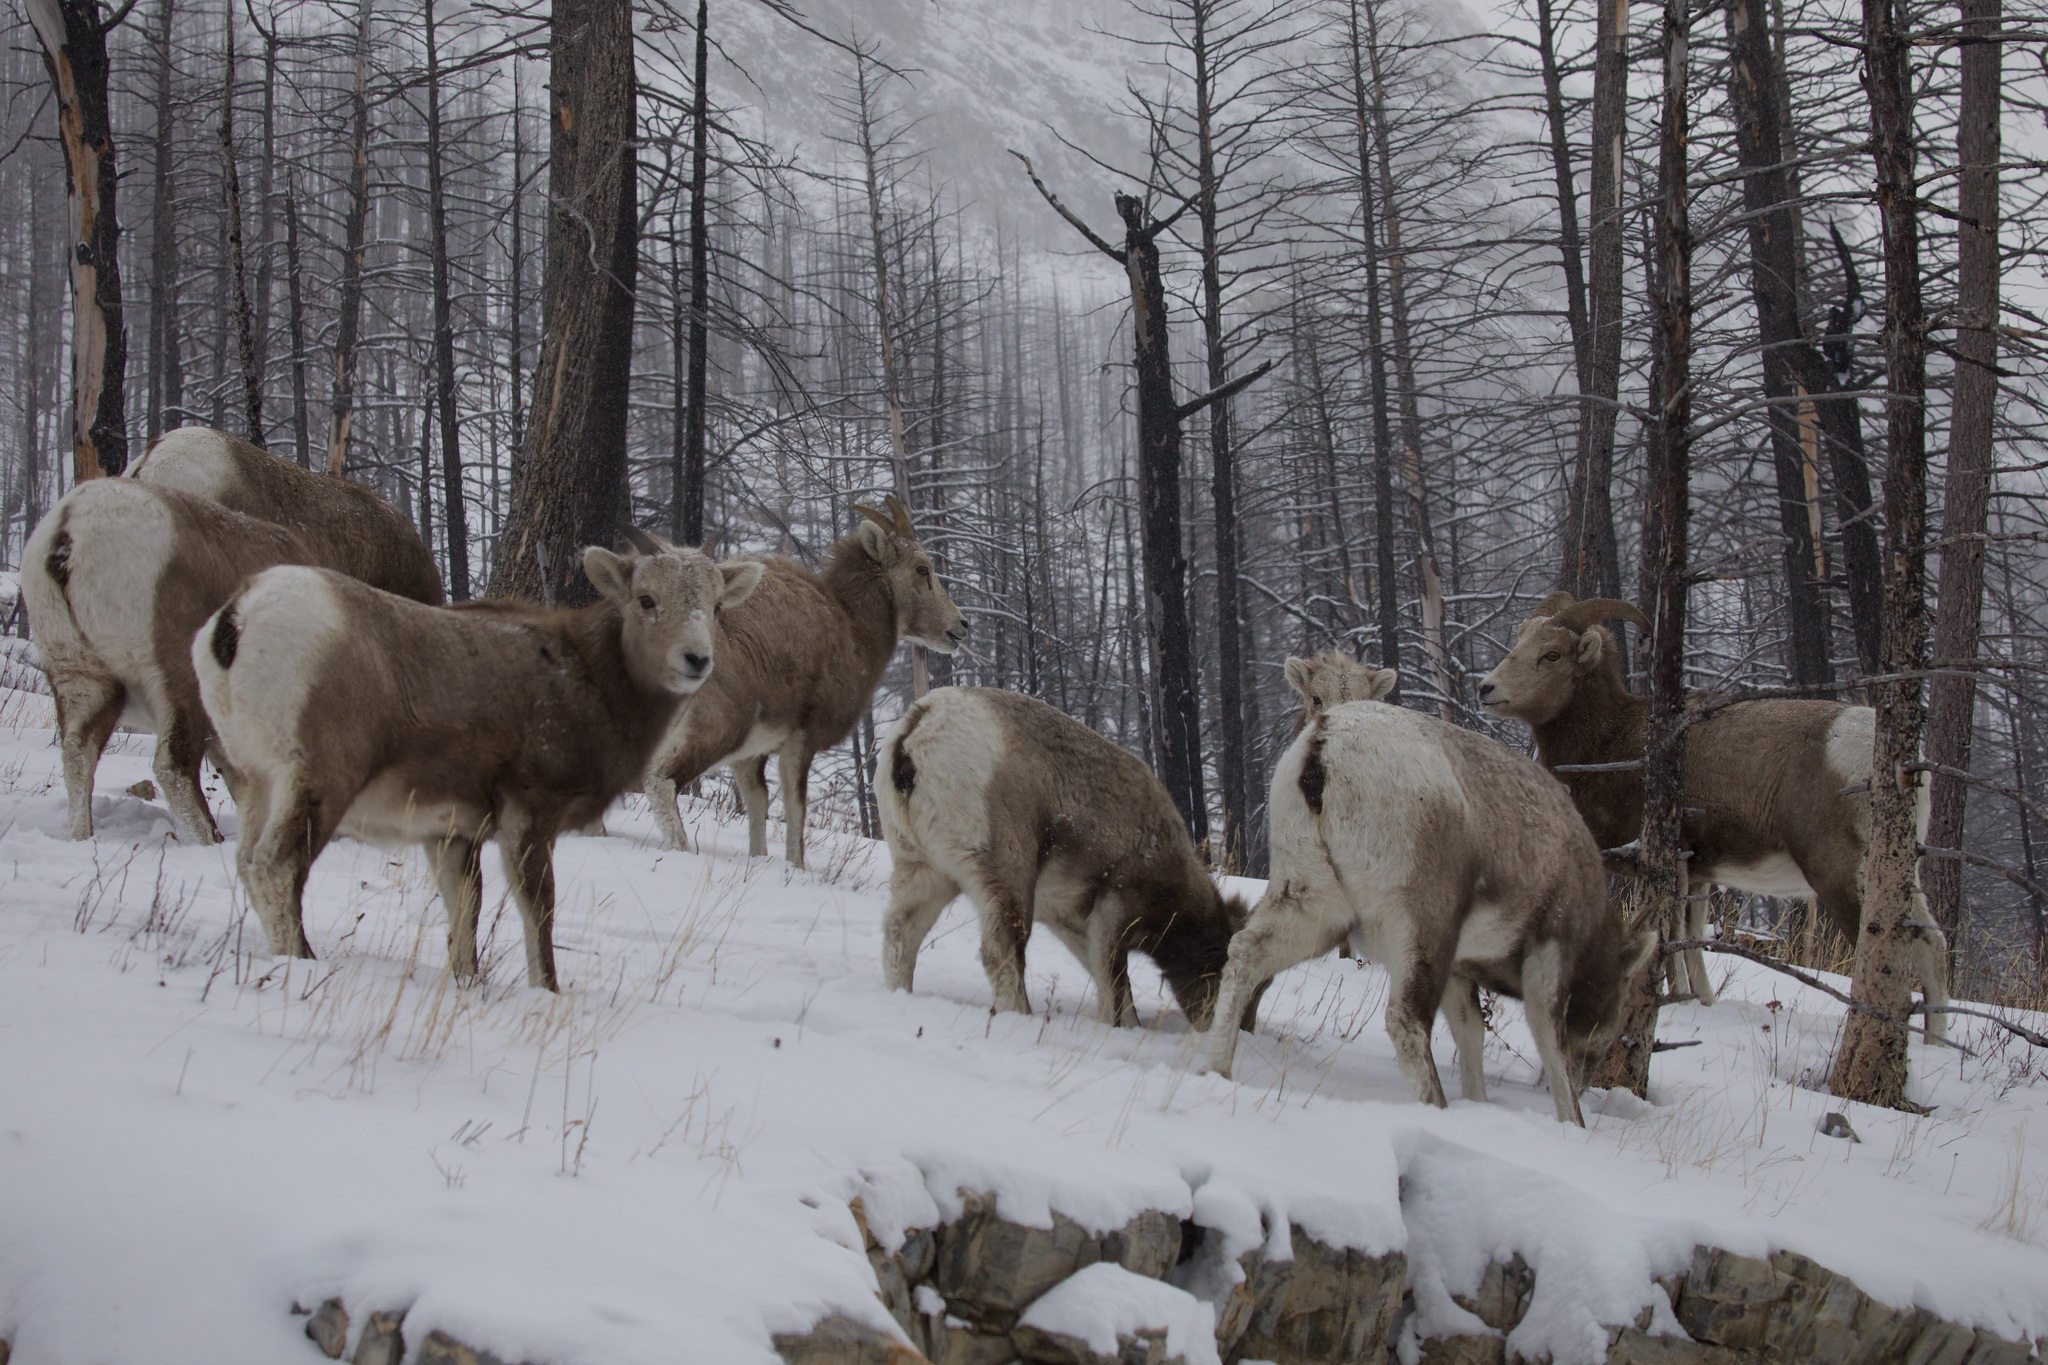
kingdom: Animalia
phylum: Chordata
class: Mammalia
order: Artiodactyla
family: Bovidae
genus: Ovis
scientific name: Ovis canadensis
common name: Bighorn sheep
